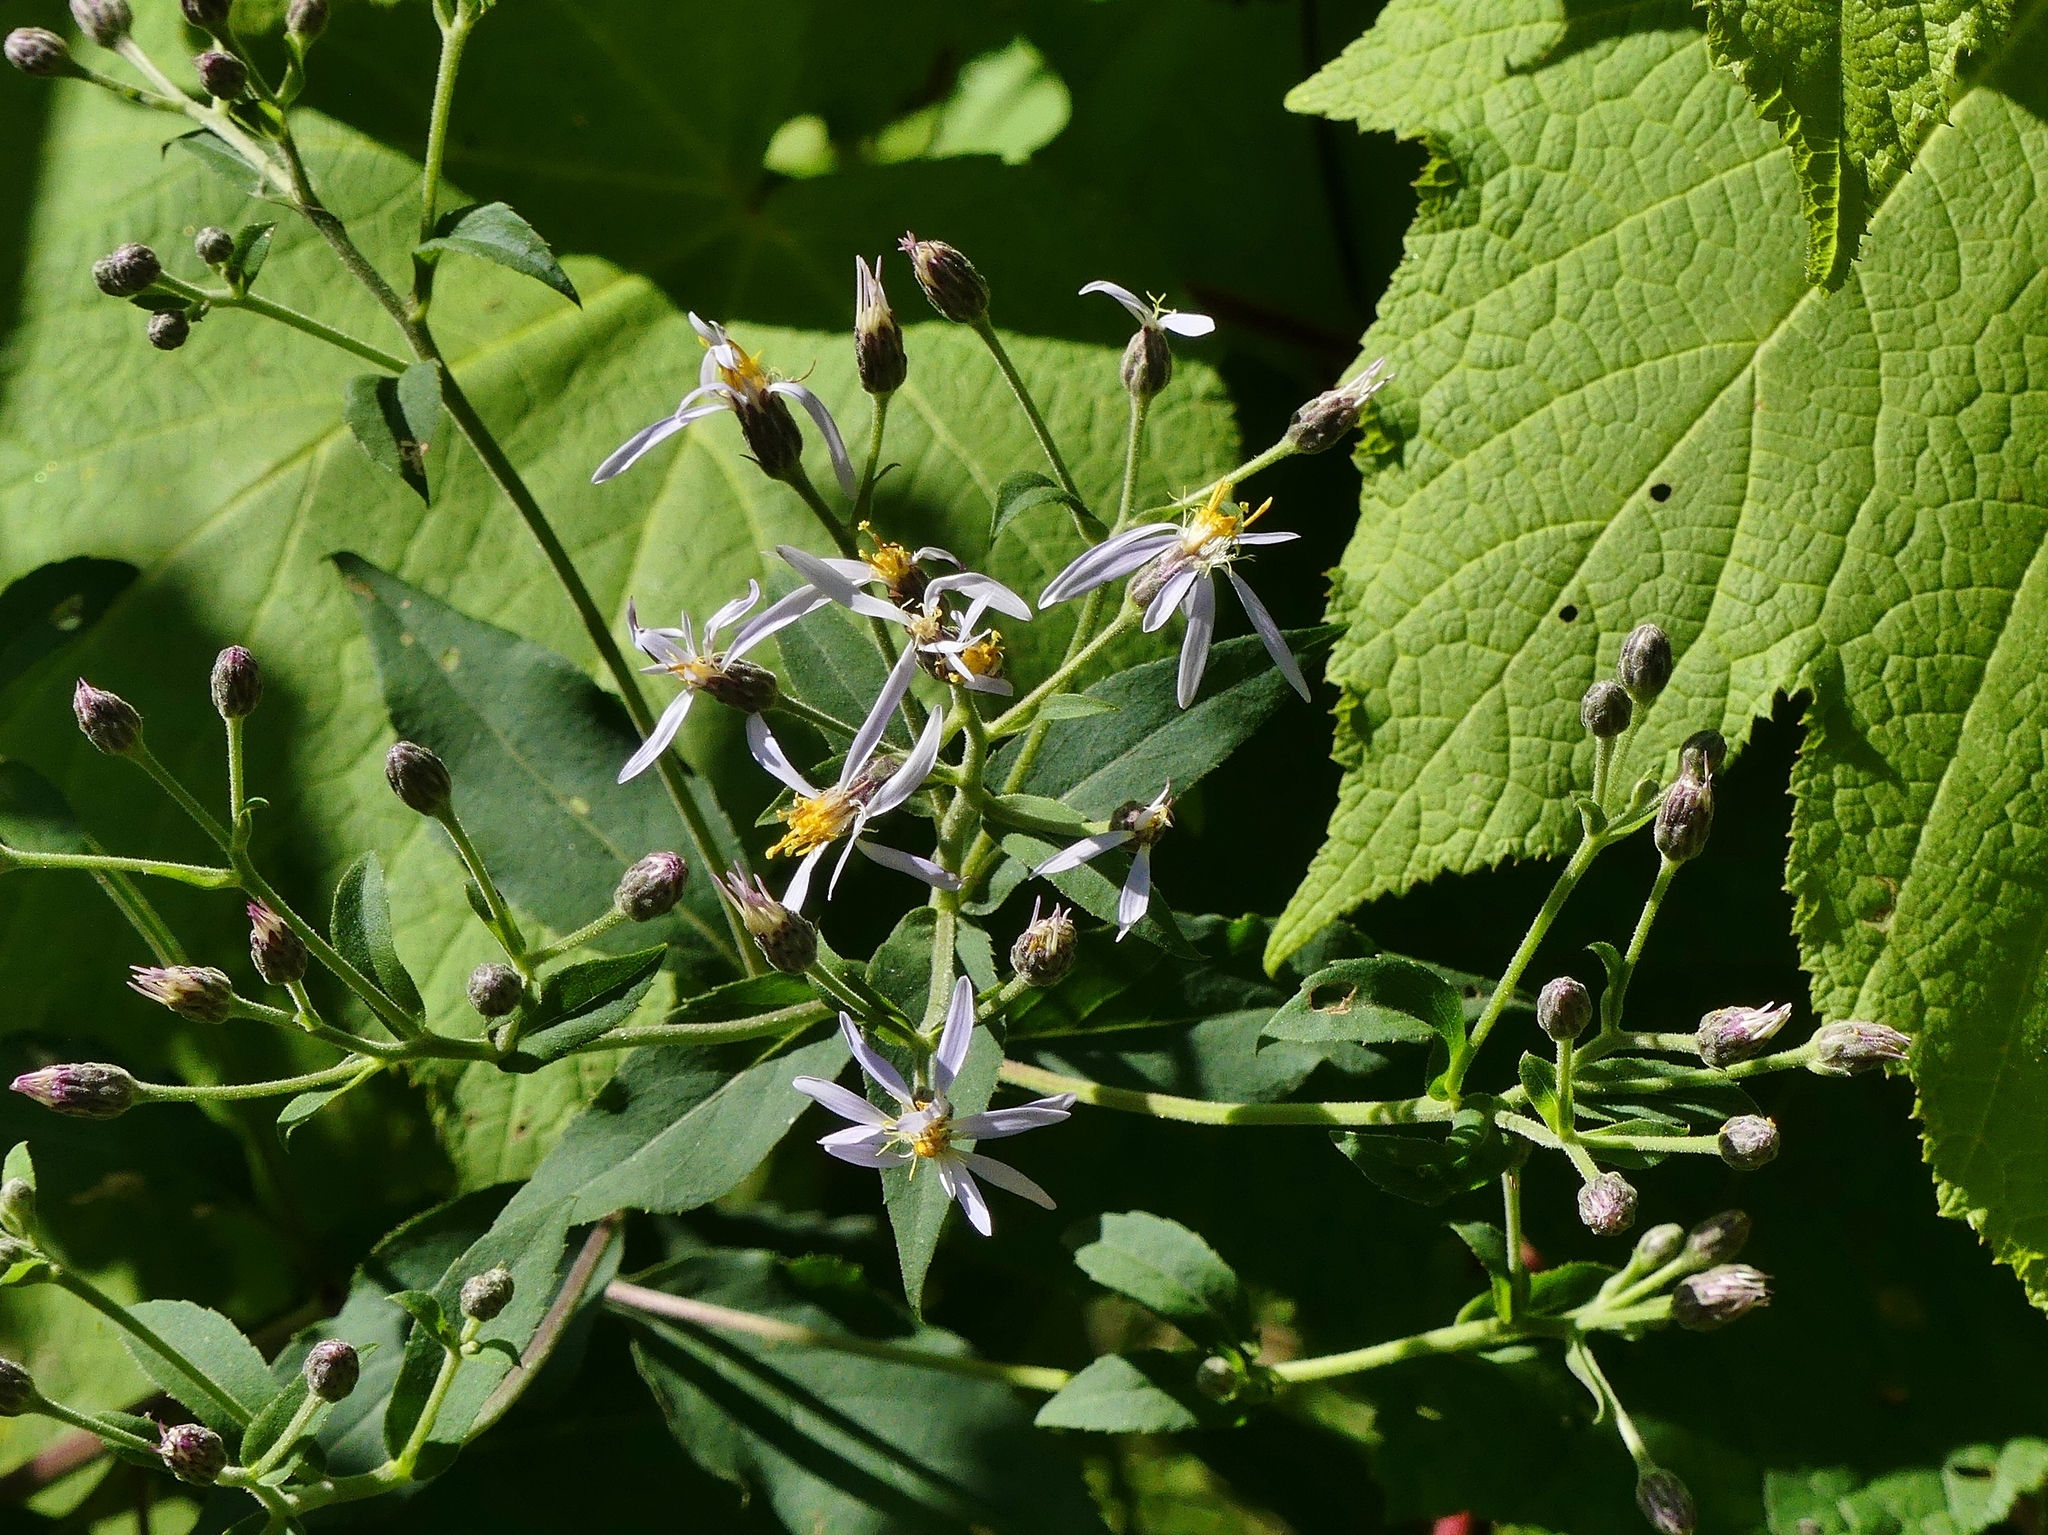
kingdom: Plantae
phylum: Tracheophyta
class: Magnoliopsida
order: Asterales
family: Asteraceae
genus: Symphyotrichum
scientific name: Symphyotrichum puniceum
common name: Bog aster
